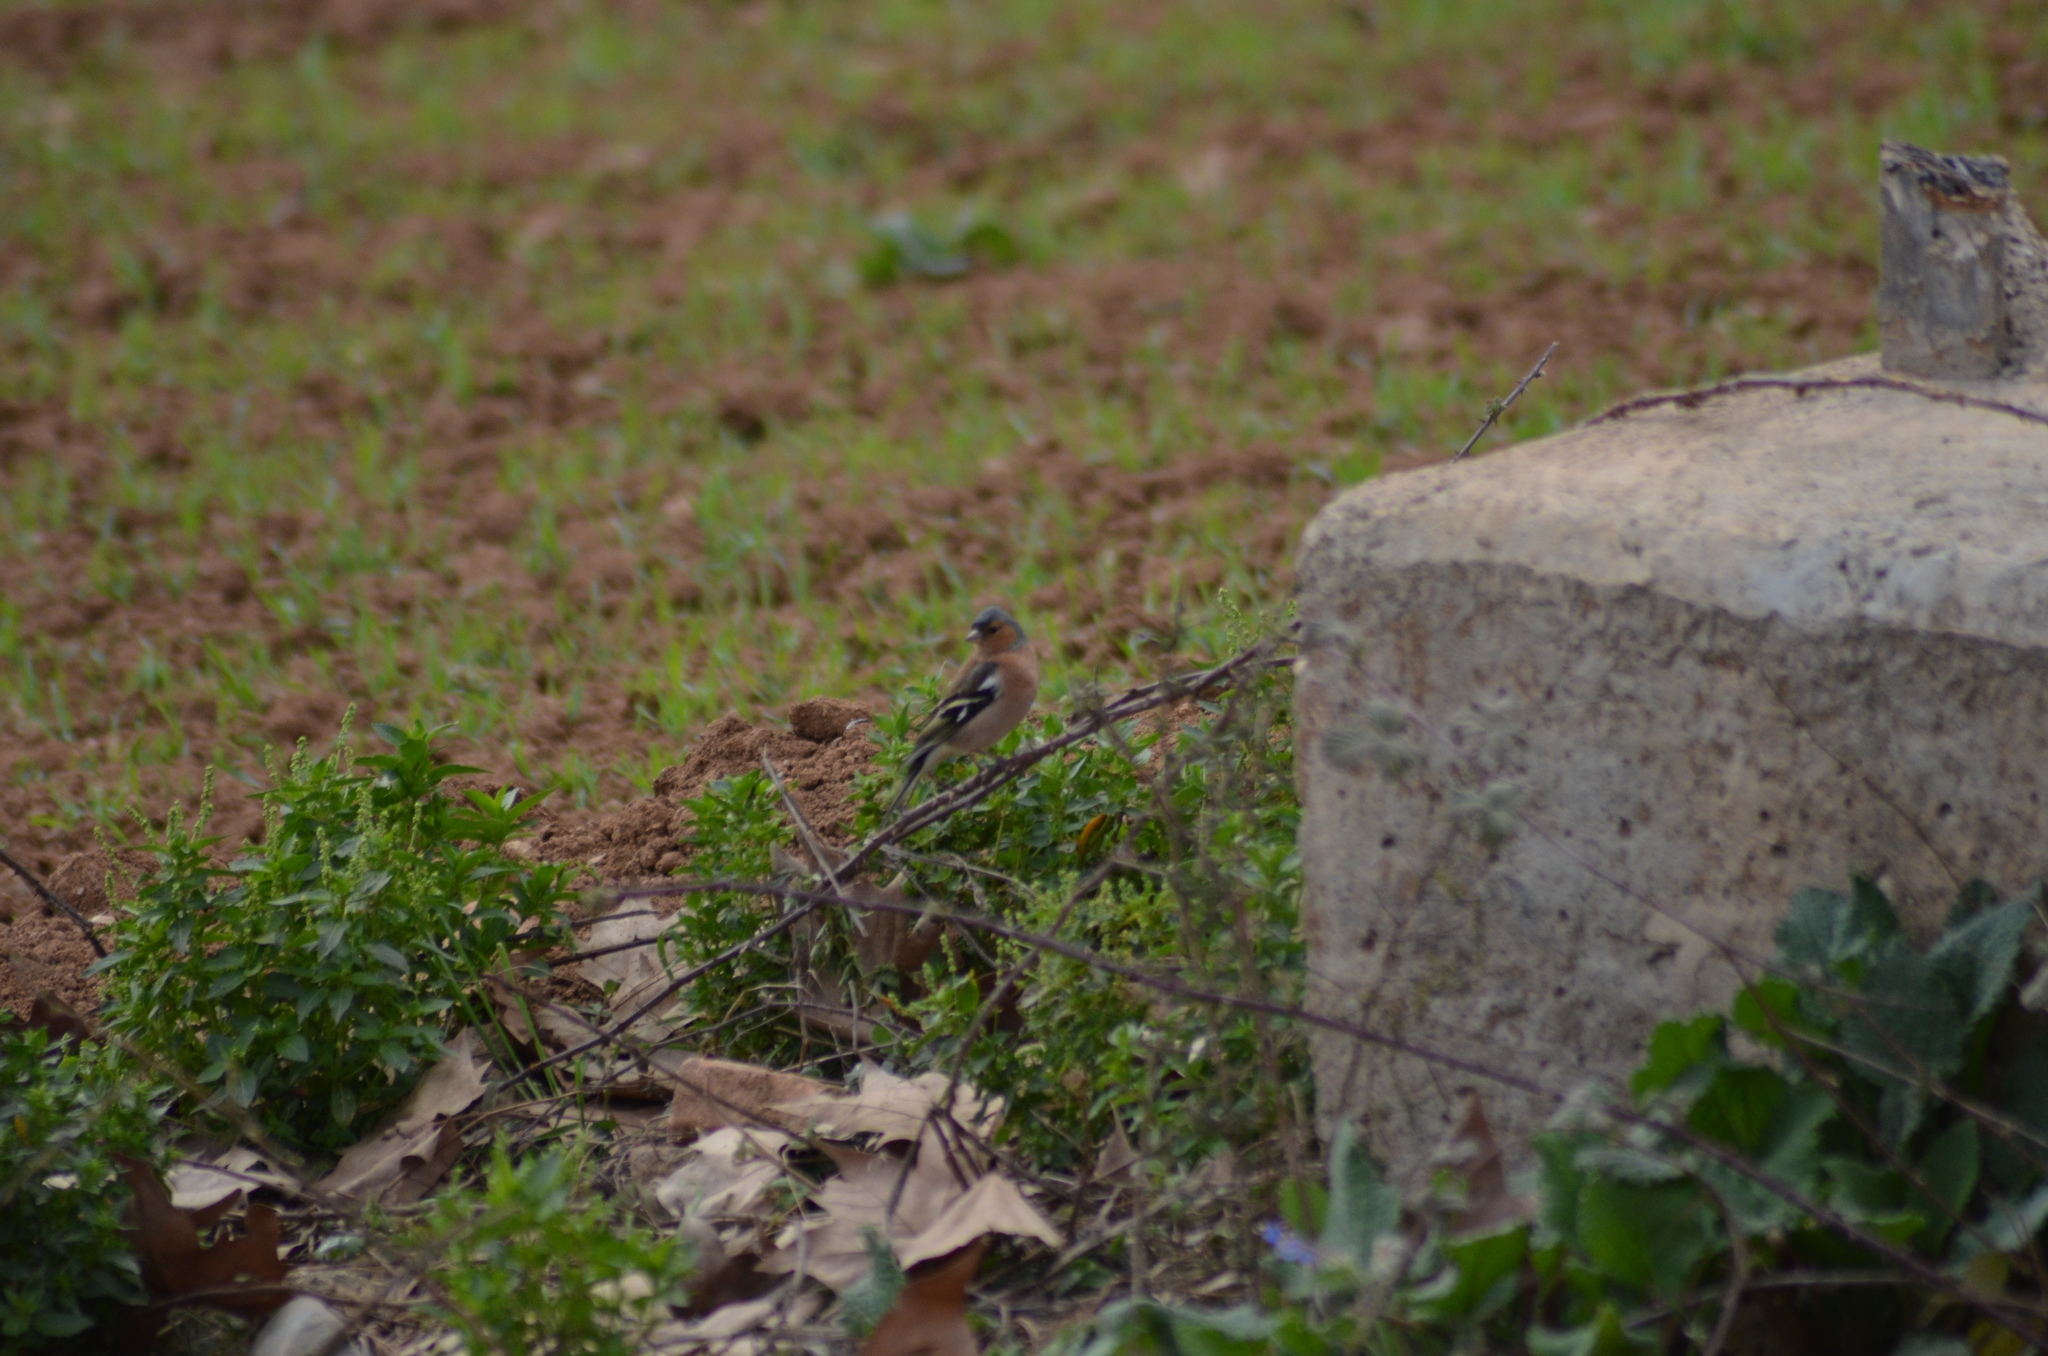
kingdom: Animalia
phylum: Chordata
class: Aves
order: Passeriformes
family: Fringillidae
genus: Fringilla
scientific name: Fringilla coelebs
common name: Common chaffinch
